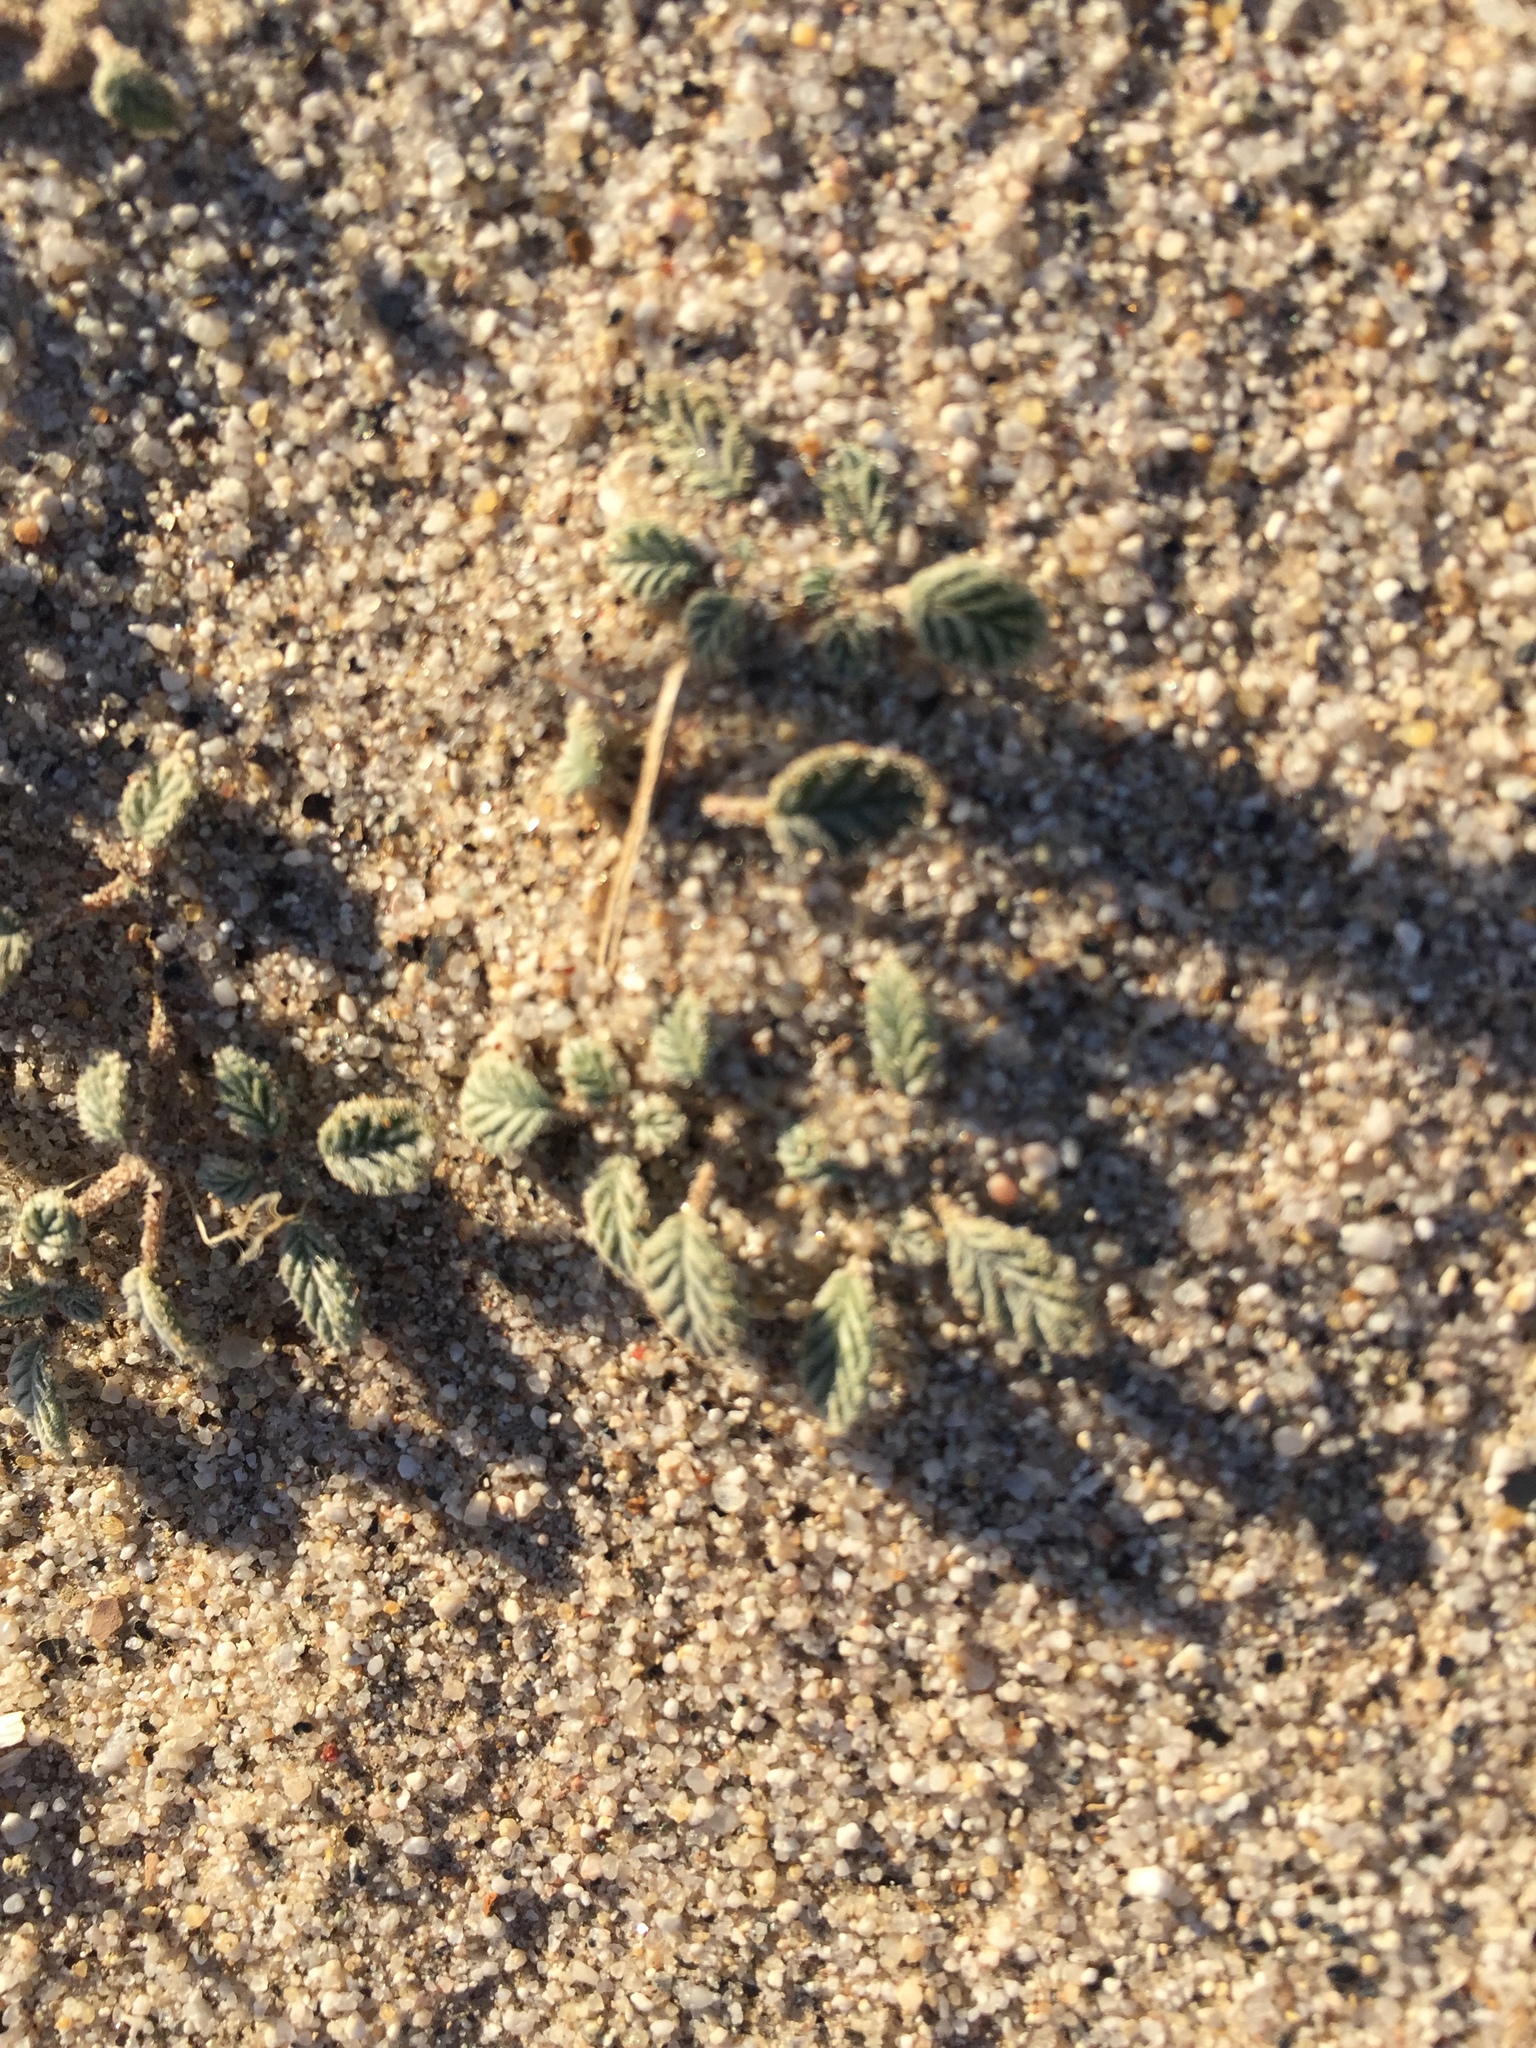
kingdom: Plantae
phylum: Tracheophyta
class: Magnoliopsida
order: Boraginales
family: Ehretiaceae
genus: Tiquilia
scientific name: Tiquilia plicata
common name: Fan-leaf tiquilia
